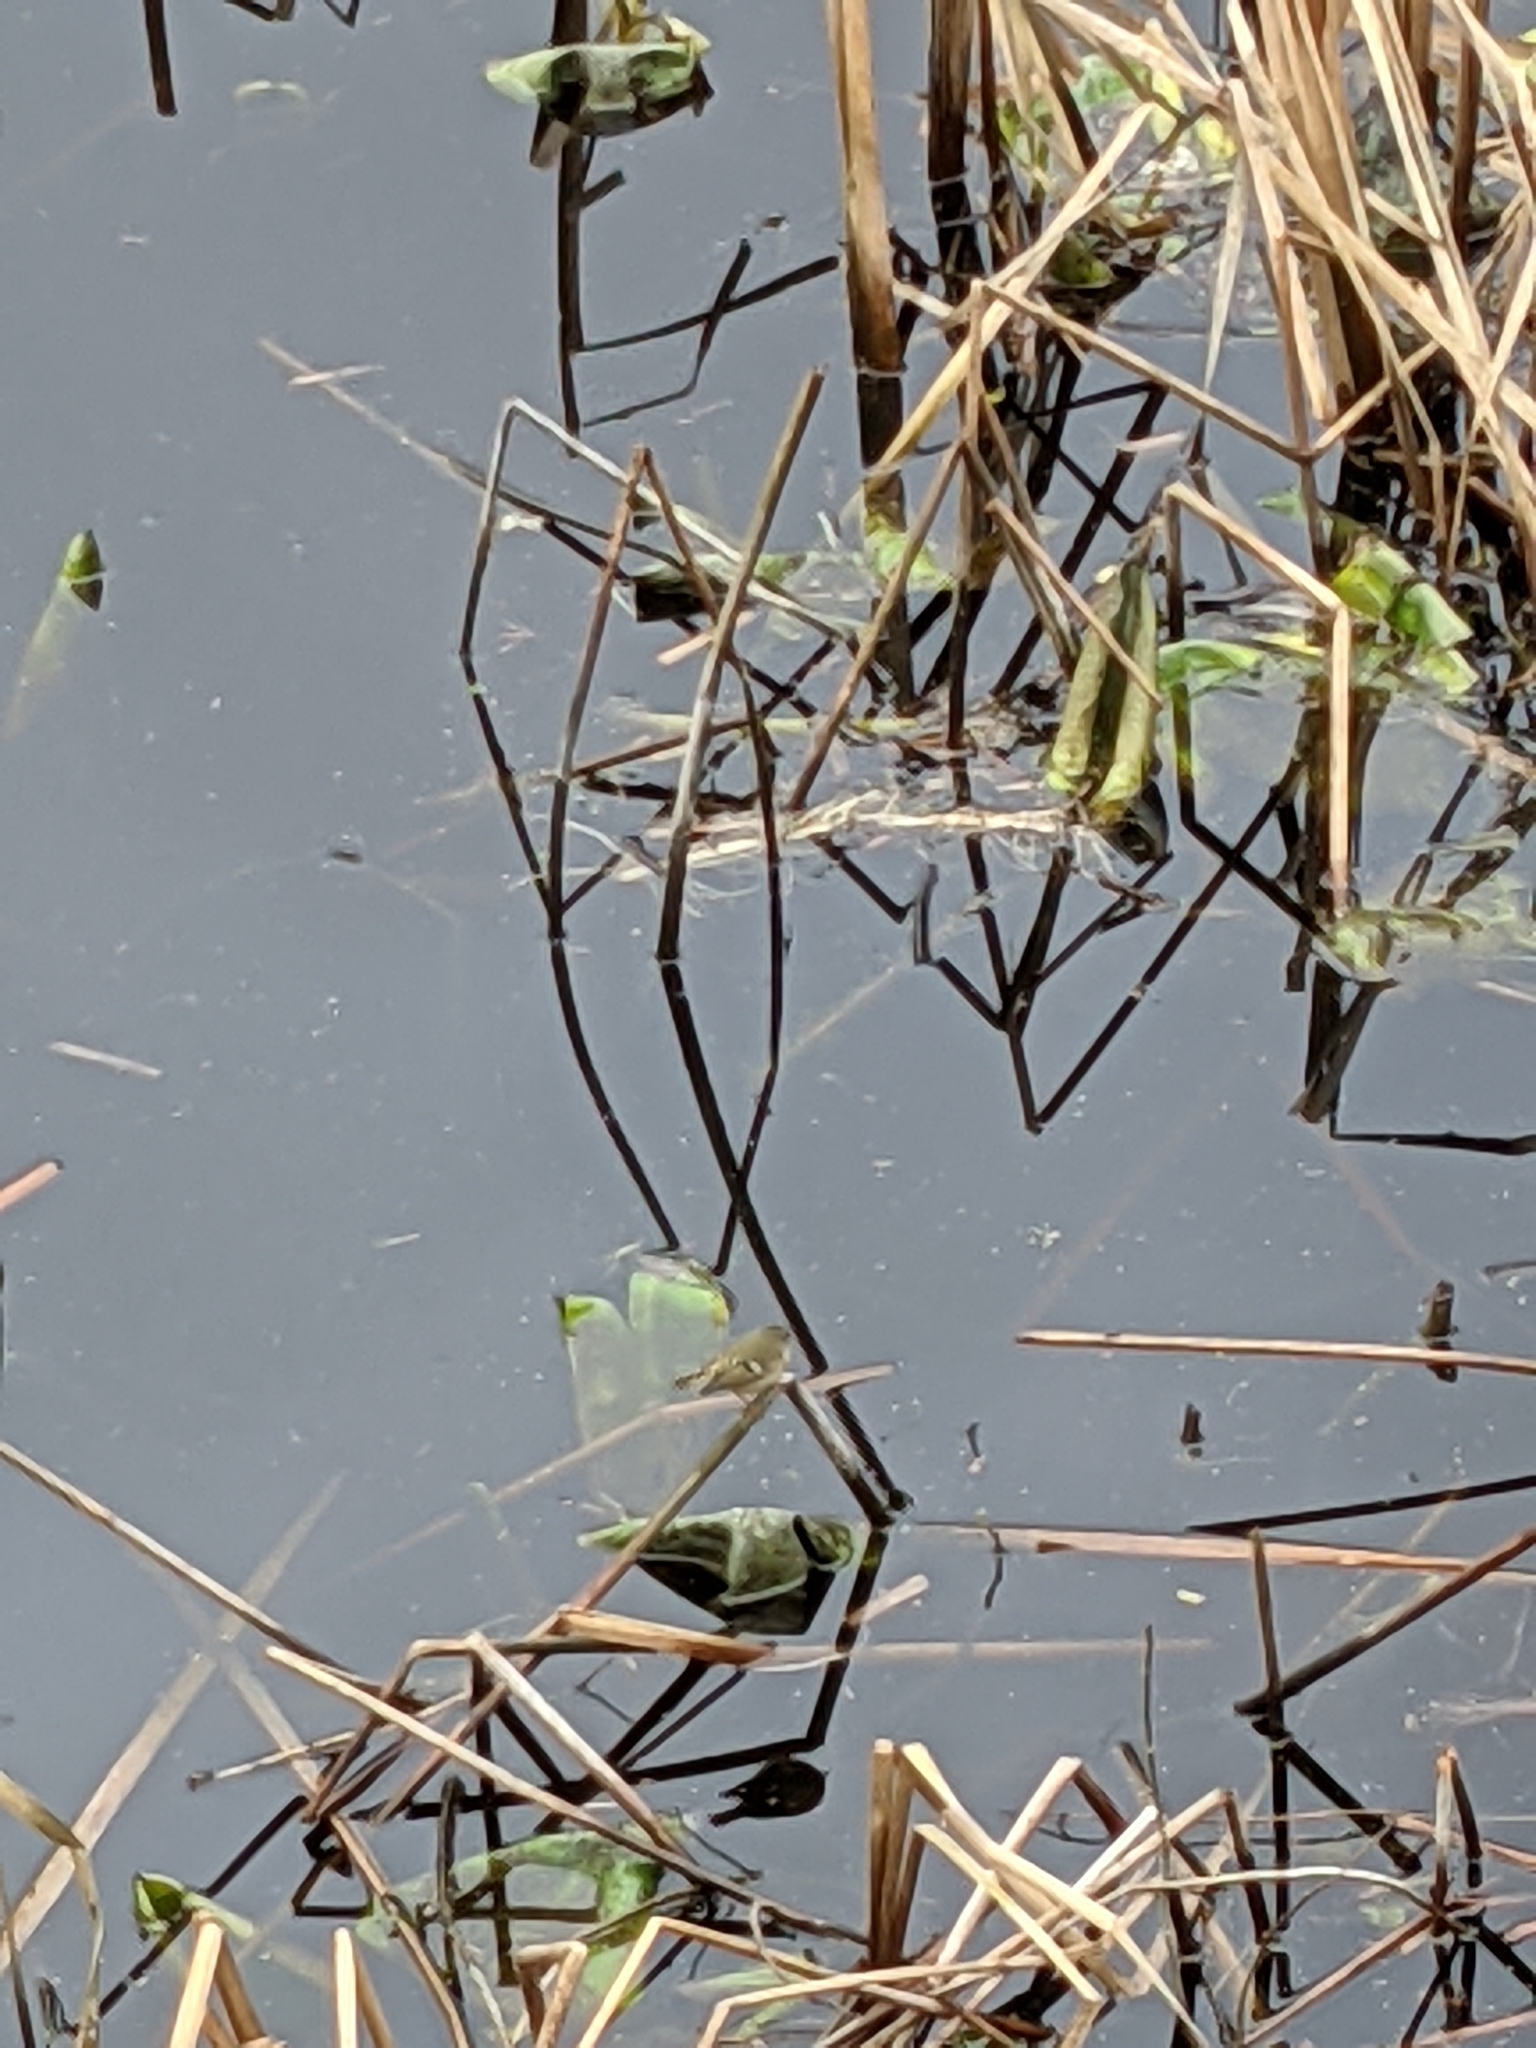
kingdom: Animalia
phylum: Chordata
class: Aves
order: Passeriformes
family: Regulidae
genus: Regulus
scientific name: Regulus calendula
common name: Ruby-crowned kinglet
